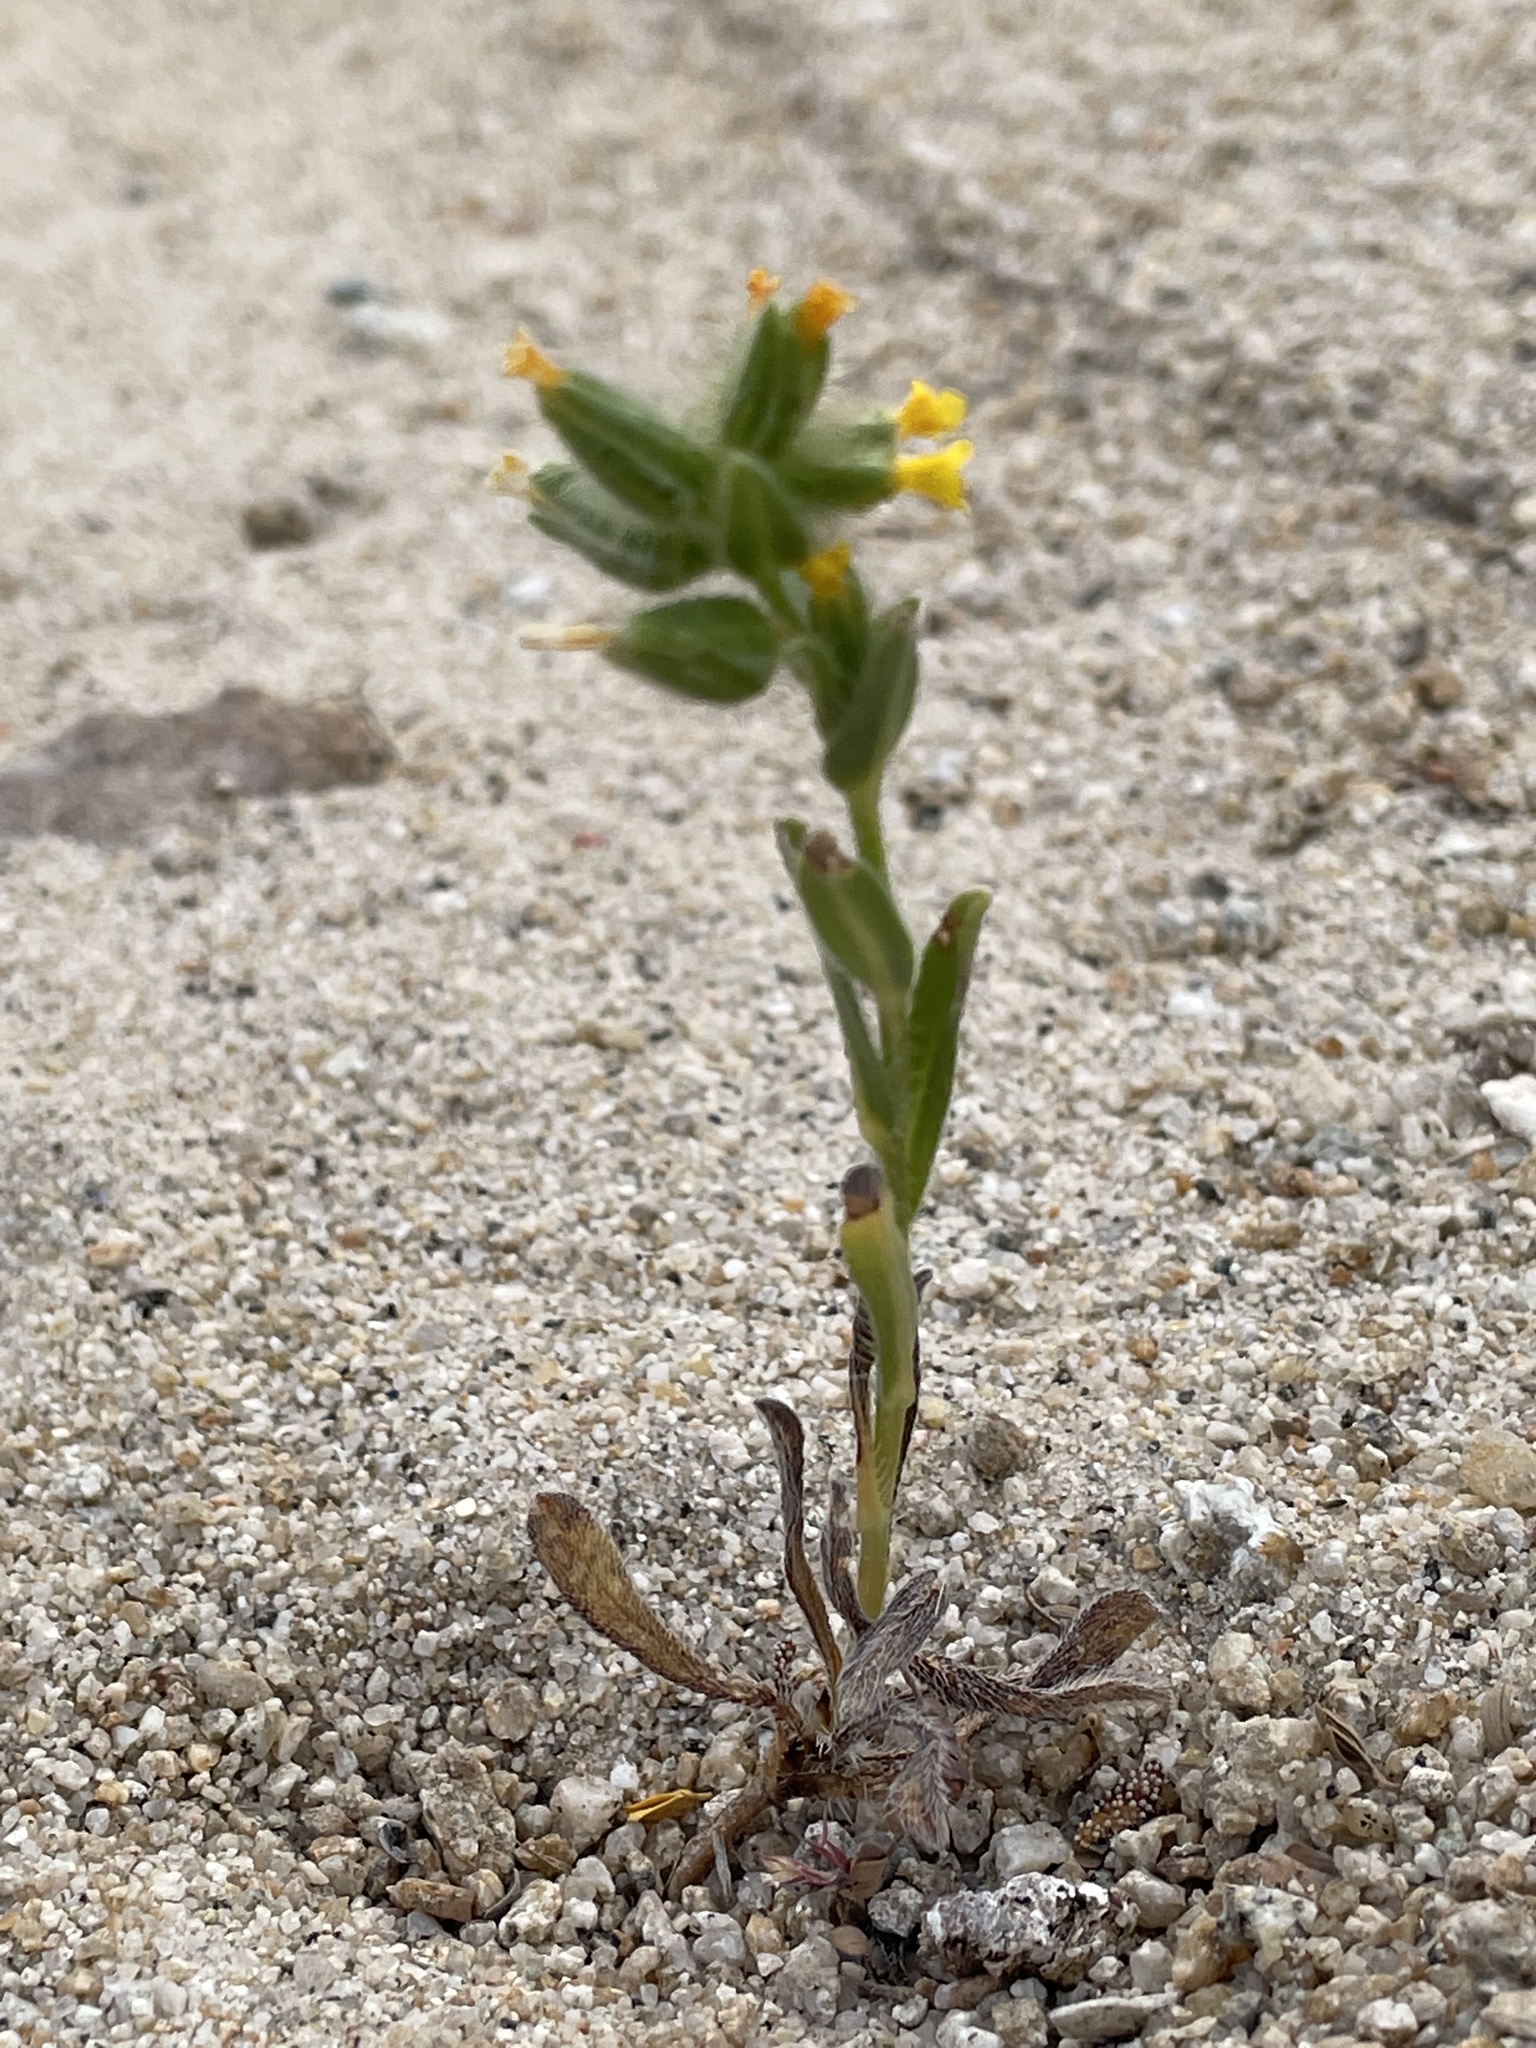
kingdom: Plantae
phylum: Tracheophyta
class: Magnoliopsida
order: Boraginales
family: Boraginaceae
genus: Amsinckia
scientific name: Amsinckia tessellata
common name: Tessellate fiddleneck
